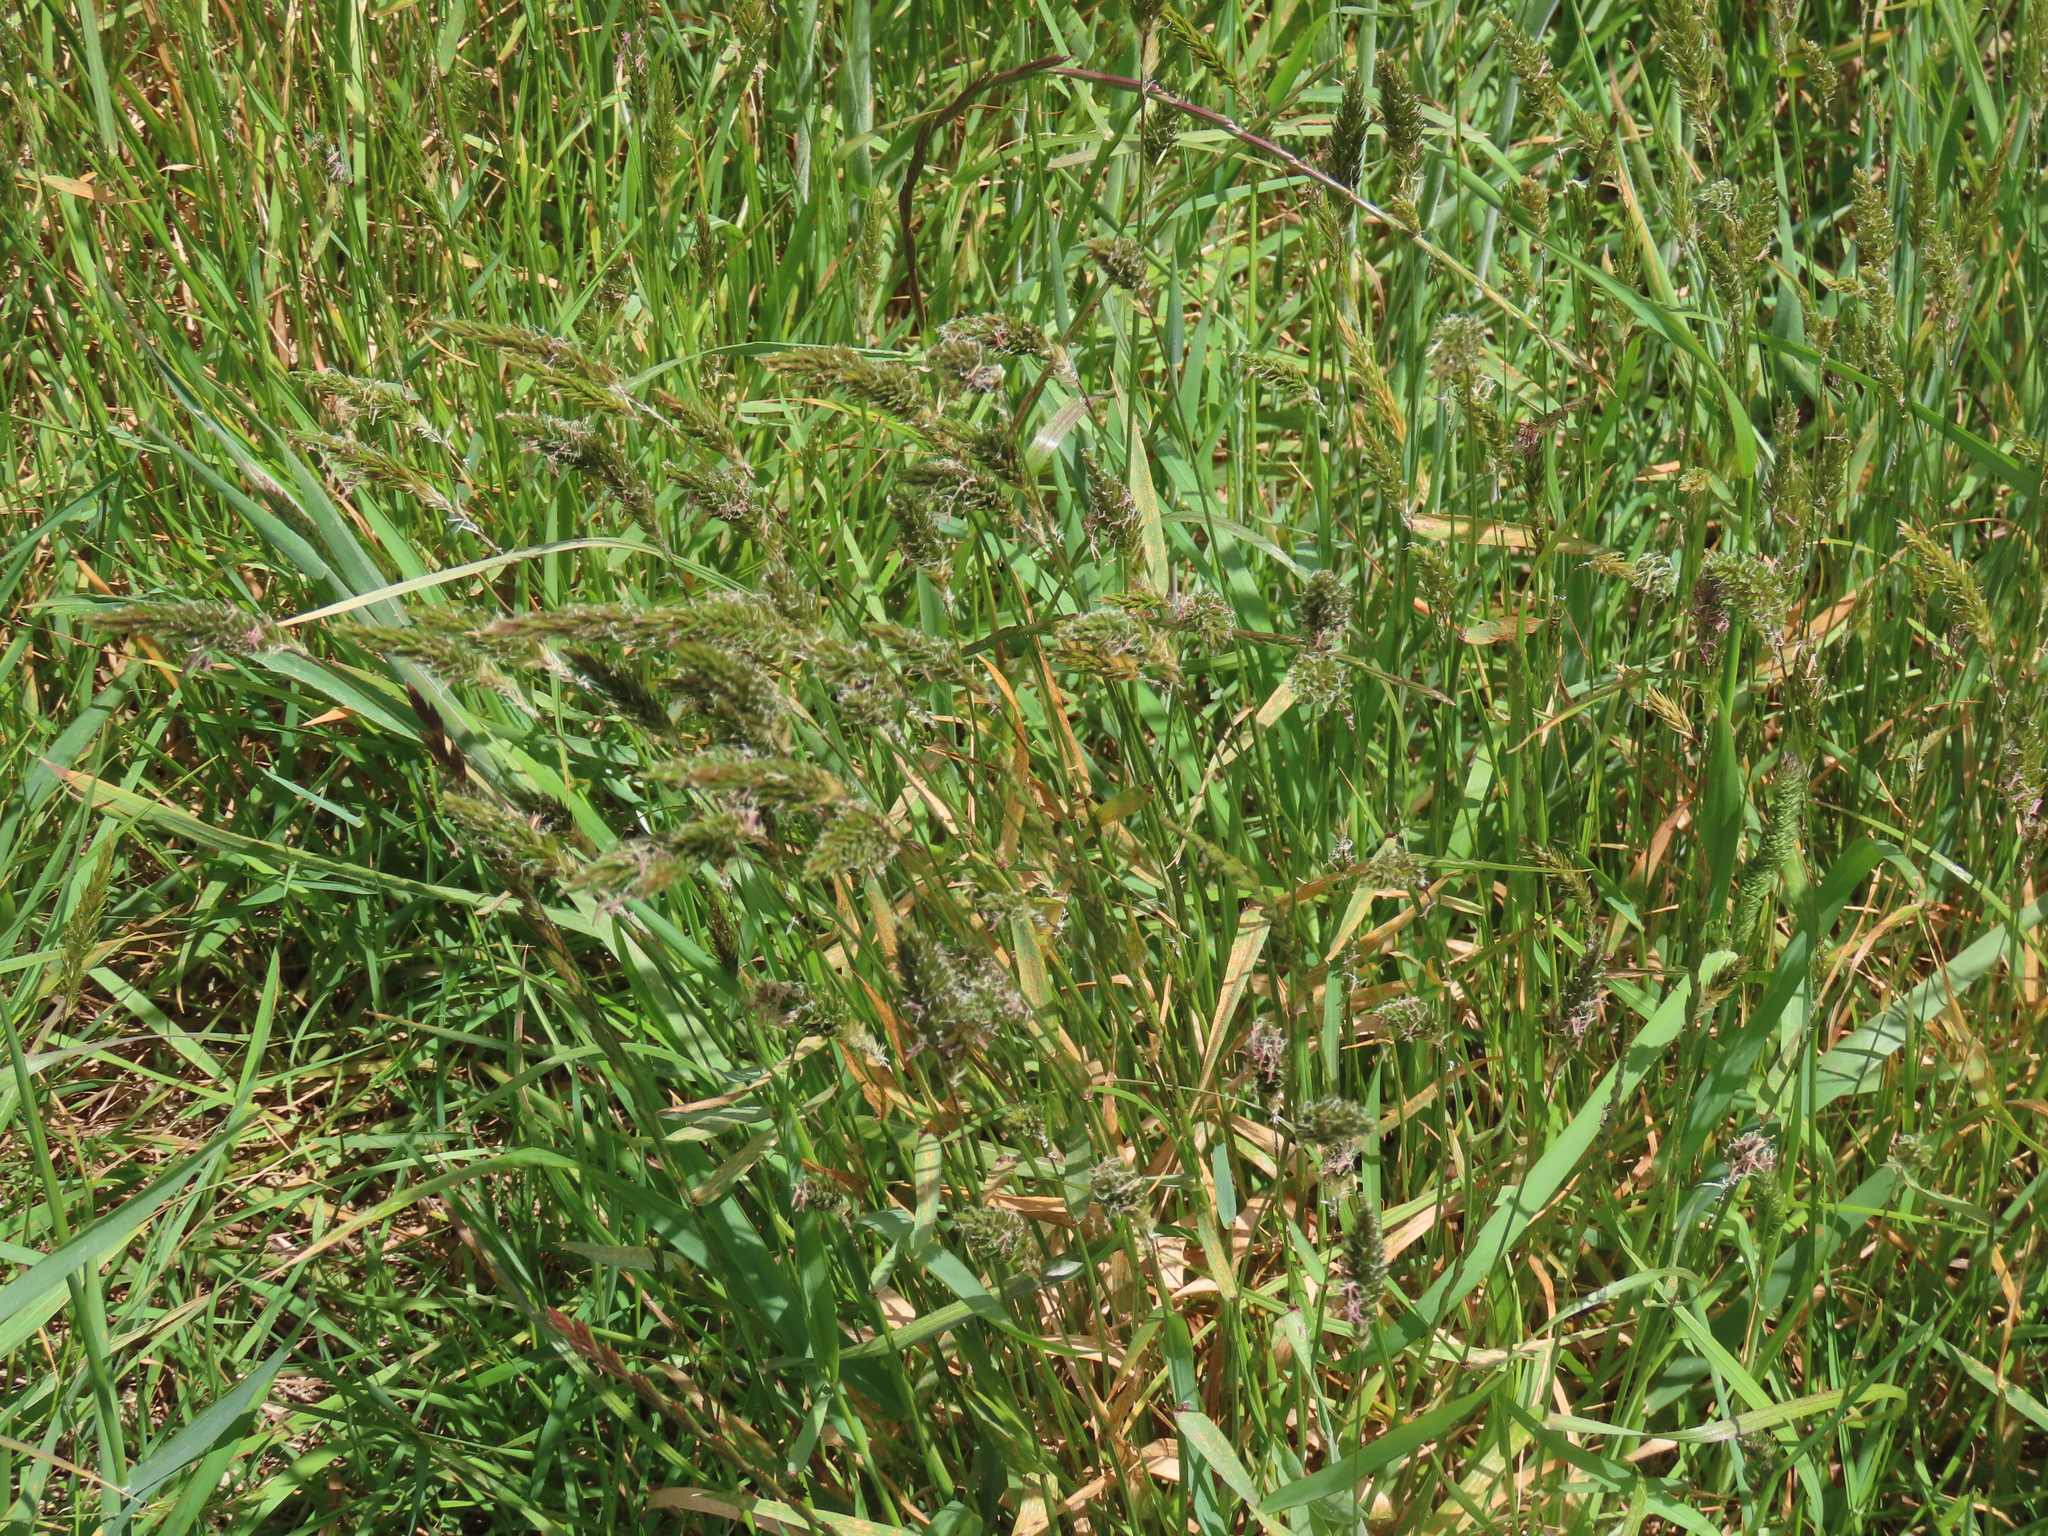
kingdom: Plantae
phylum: Tracheophyta
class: Liliopsida
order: Poales
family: Poaceae
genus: Anthoxanthum
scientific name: Anthoxanthum odoratum
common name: Sweet vernalgrass
